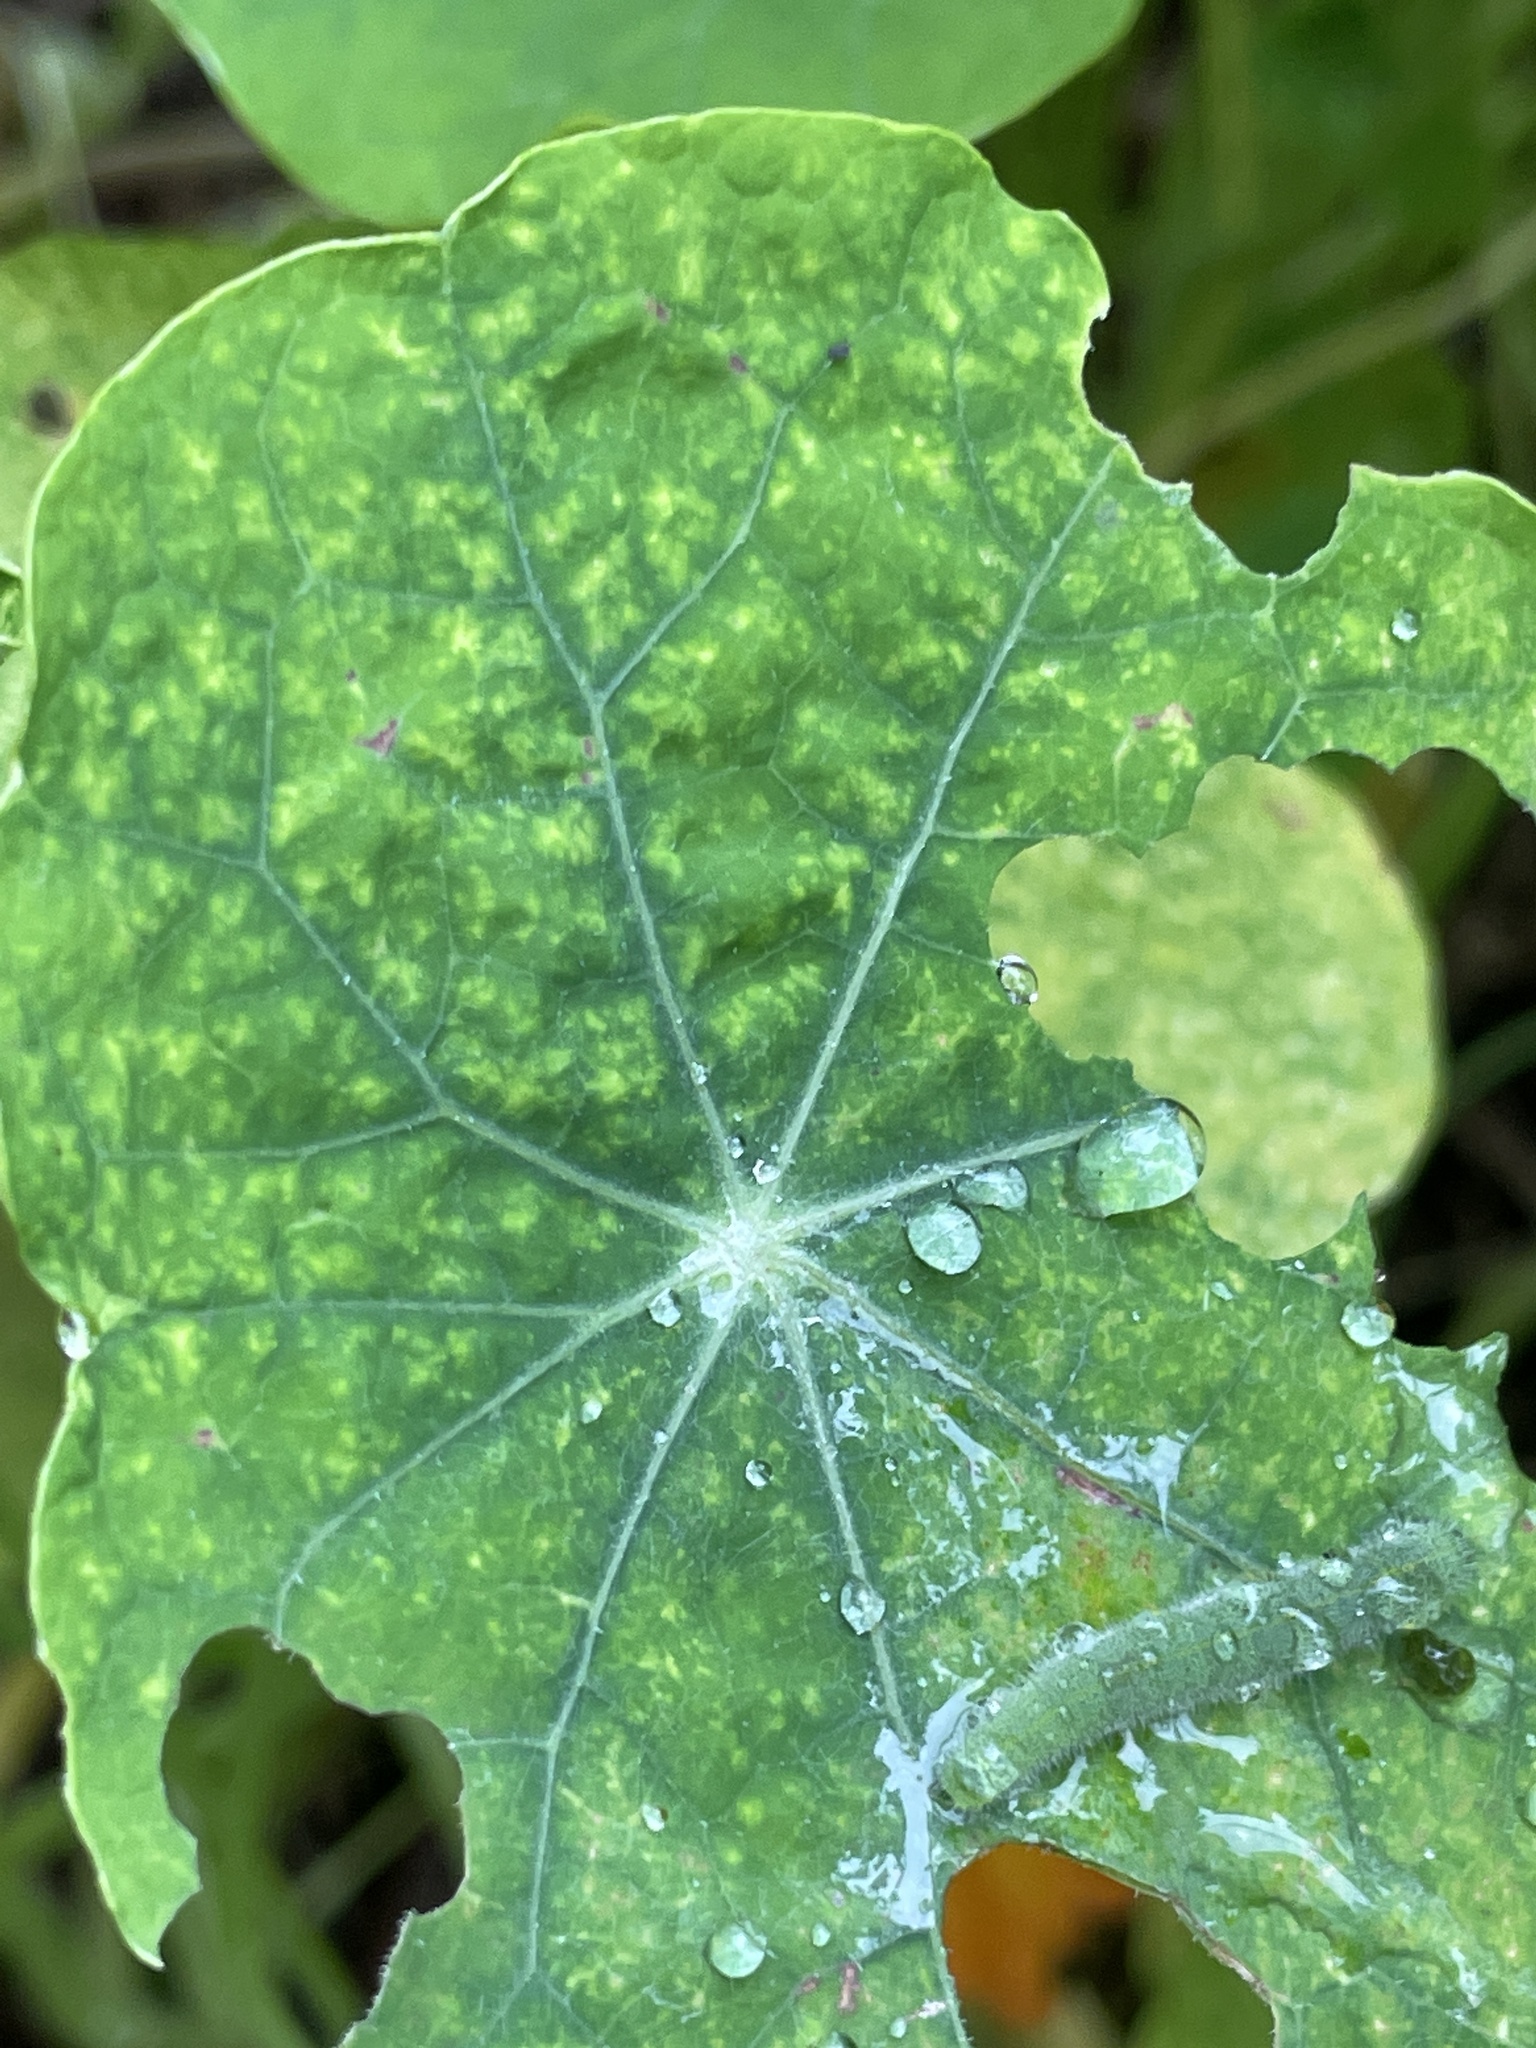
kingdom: Animalia
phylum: Arthropoda
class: Insecta
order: Lepidoptera
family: Pieridae
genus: Pieris
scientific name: Pieris rapae
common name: Small white
